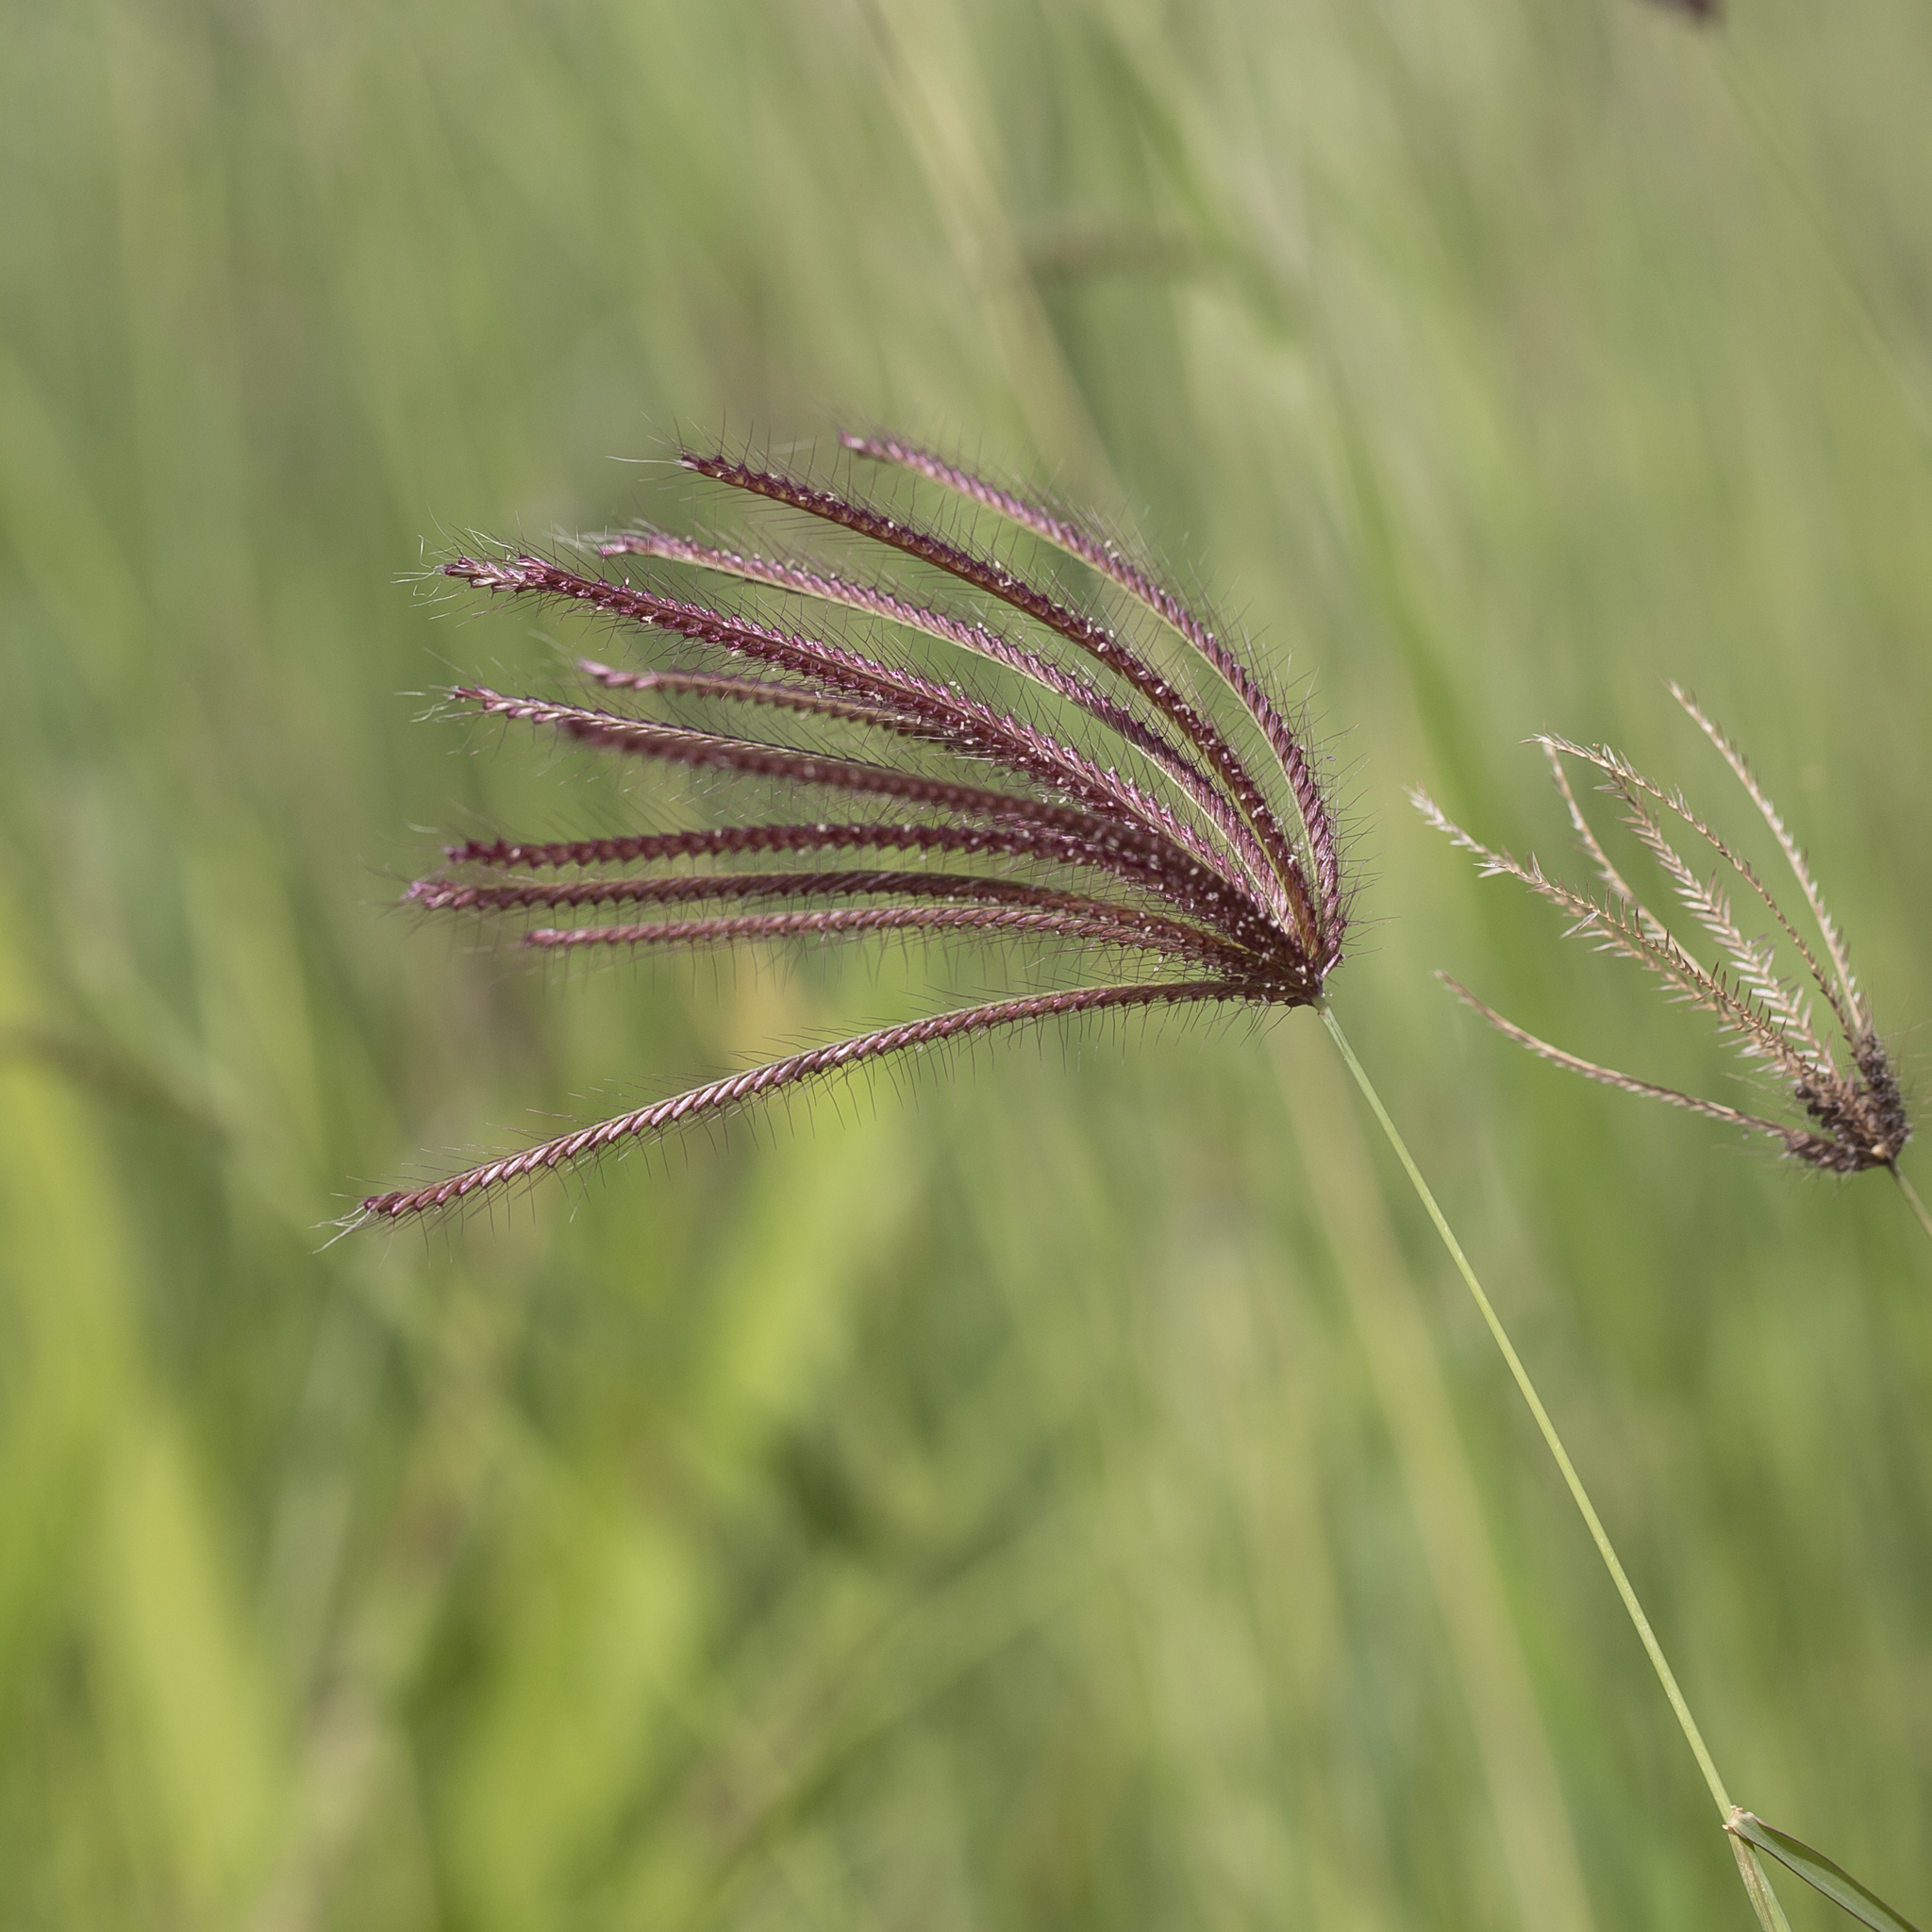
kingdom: Plantae
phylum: Tracheophyta
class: Liliopsida
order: Poales
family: Poaceae
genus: Chloris
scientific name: Chloris barbata
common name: Swollen fingergrass
